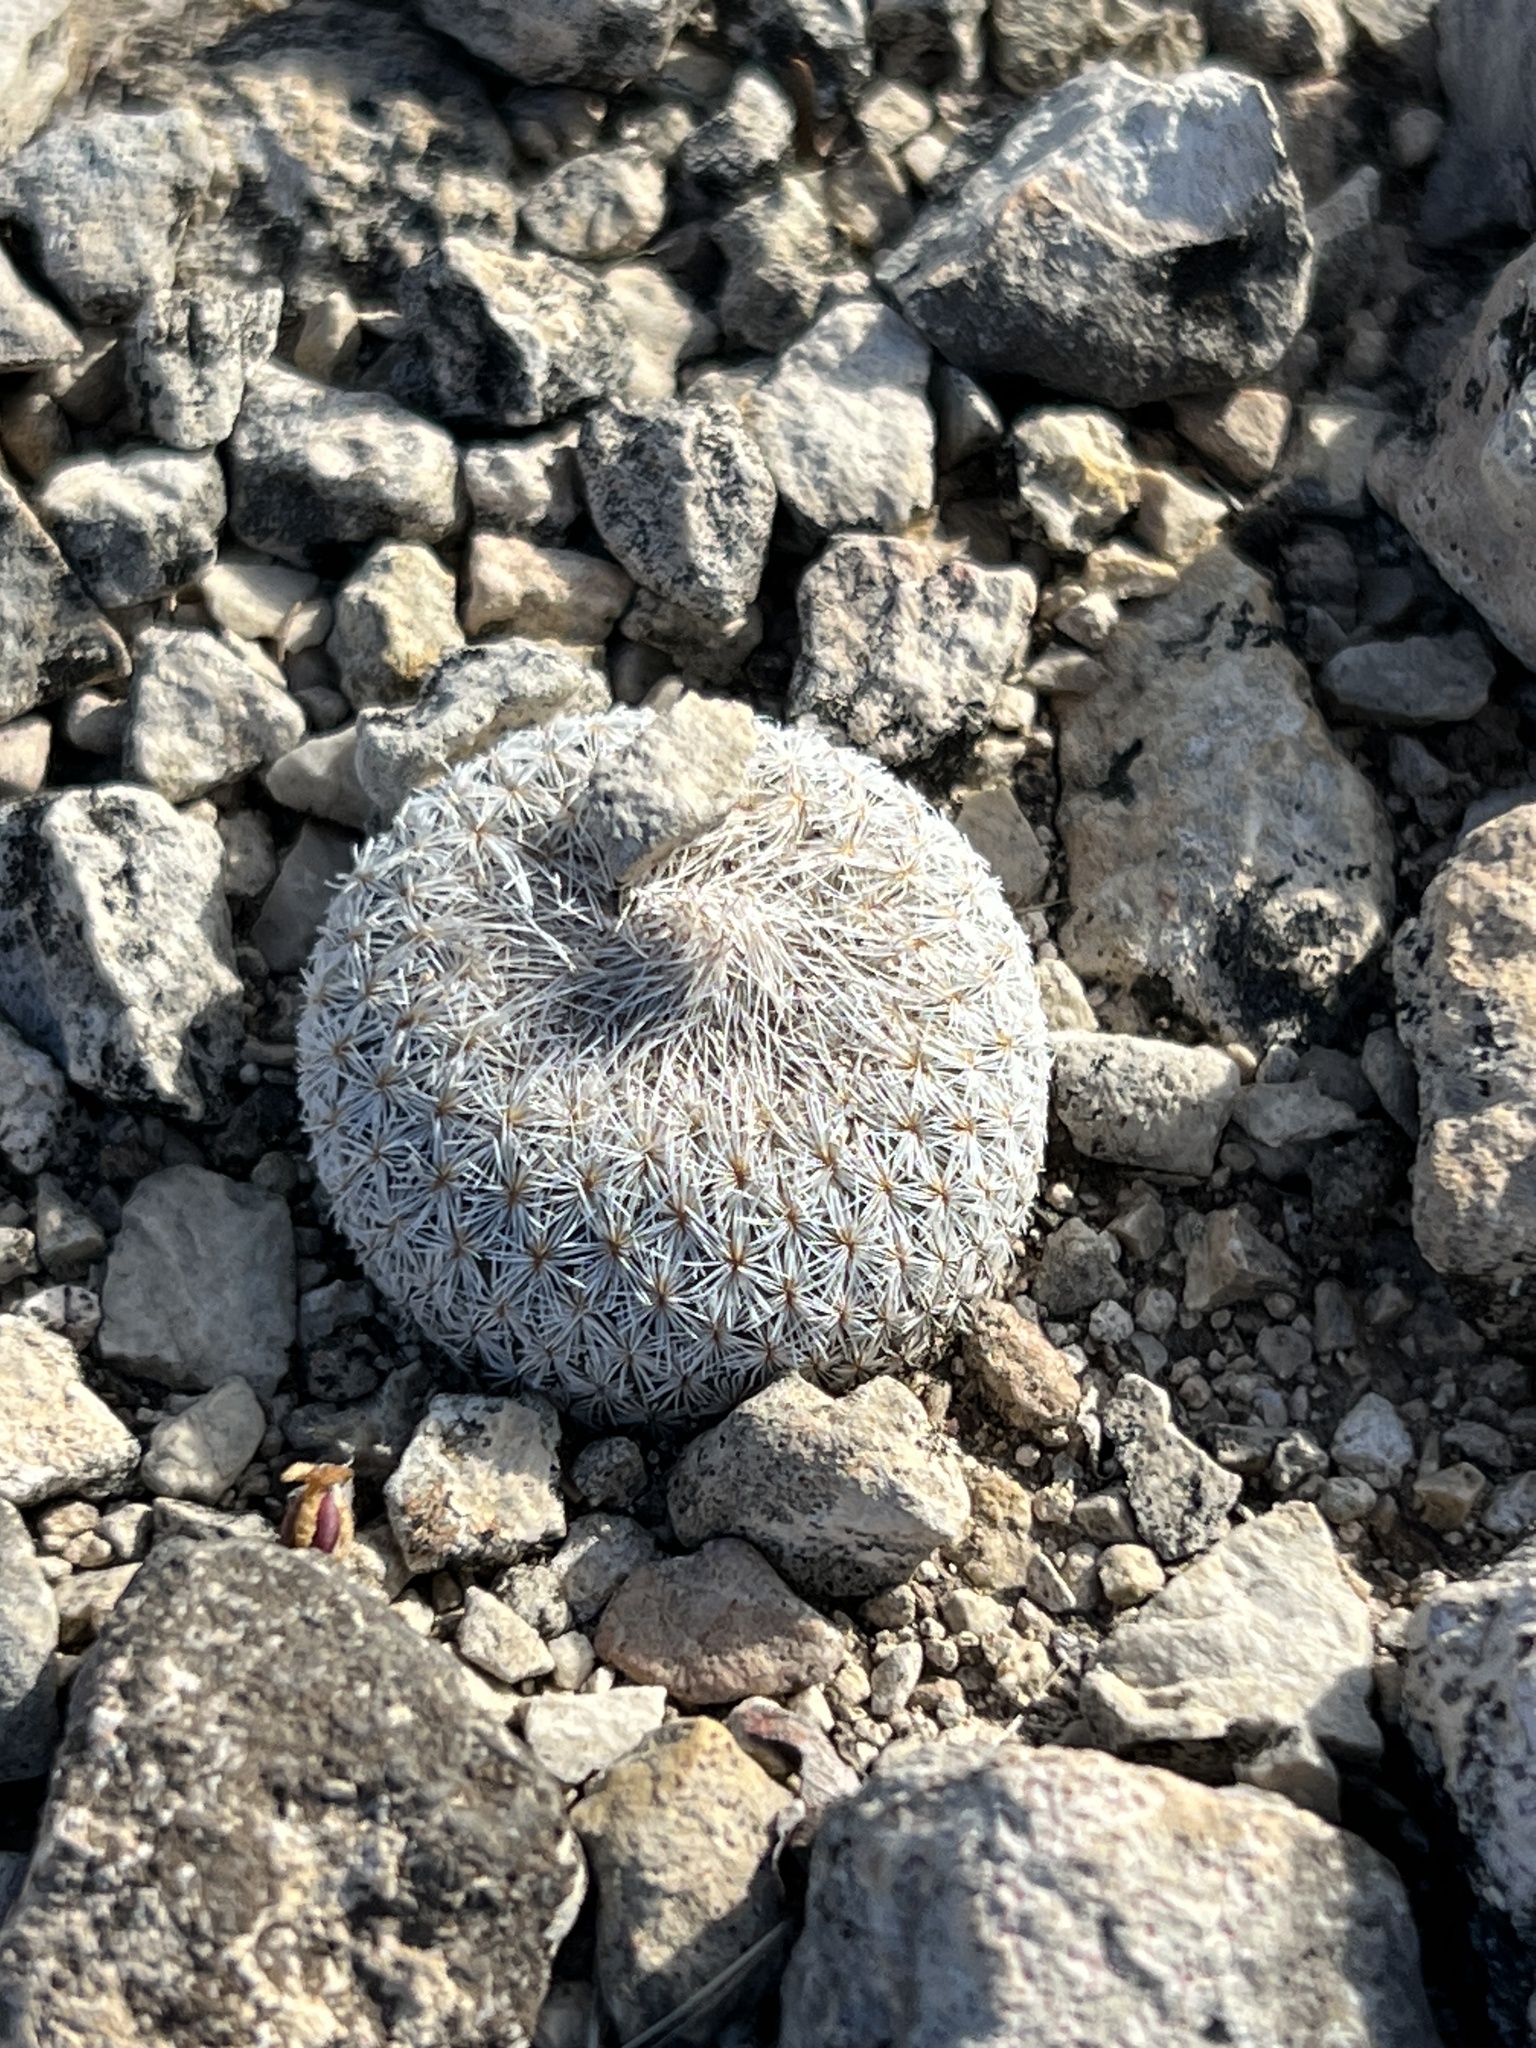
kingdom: Plantae
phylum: Tracheophyta
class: Magnoliopsida
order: Caryophyllales
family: Cactaceae
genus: Epithelantha
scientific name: Epithelantha micromeris
